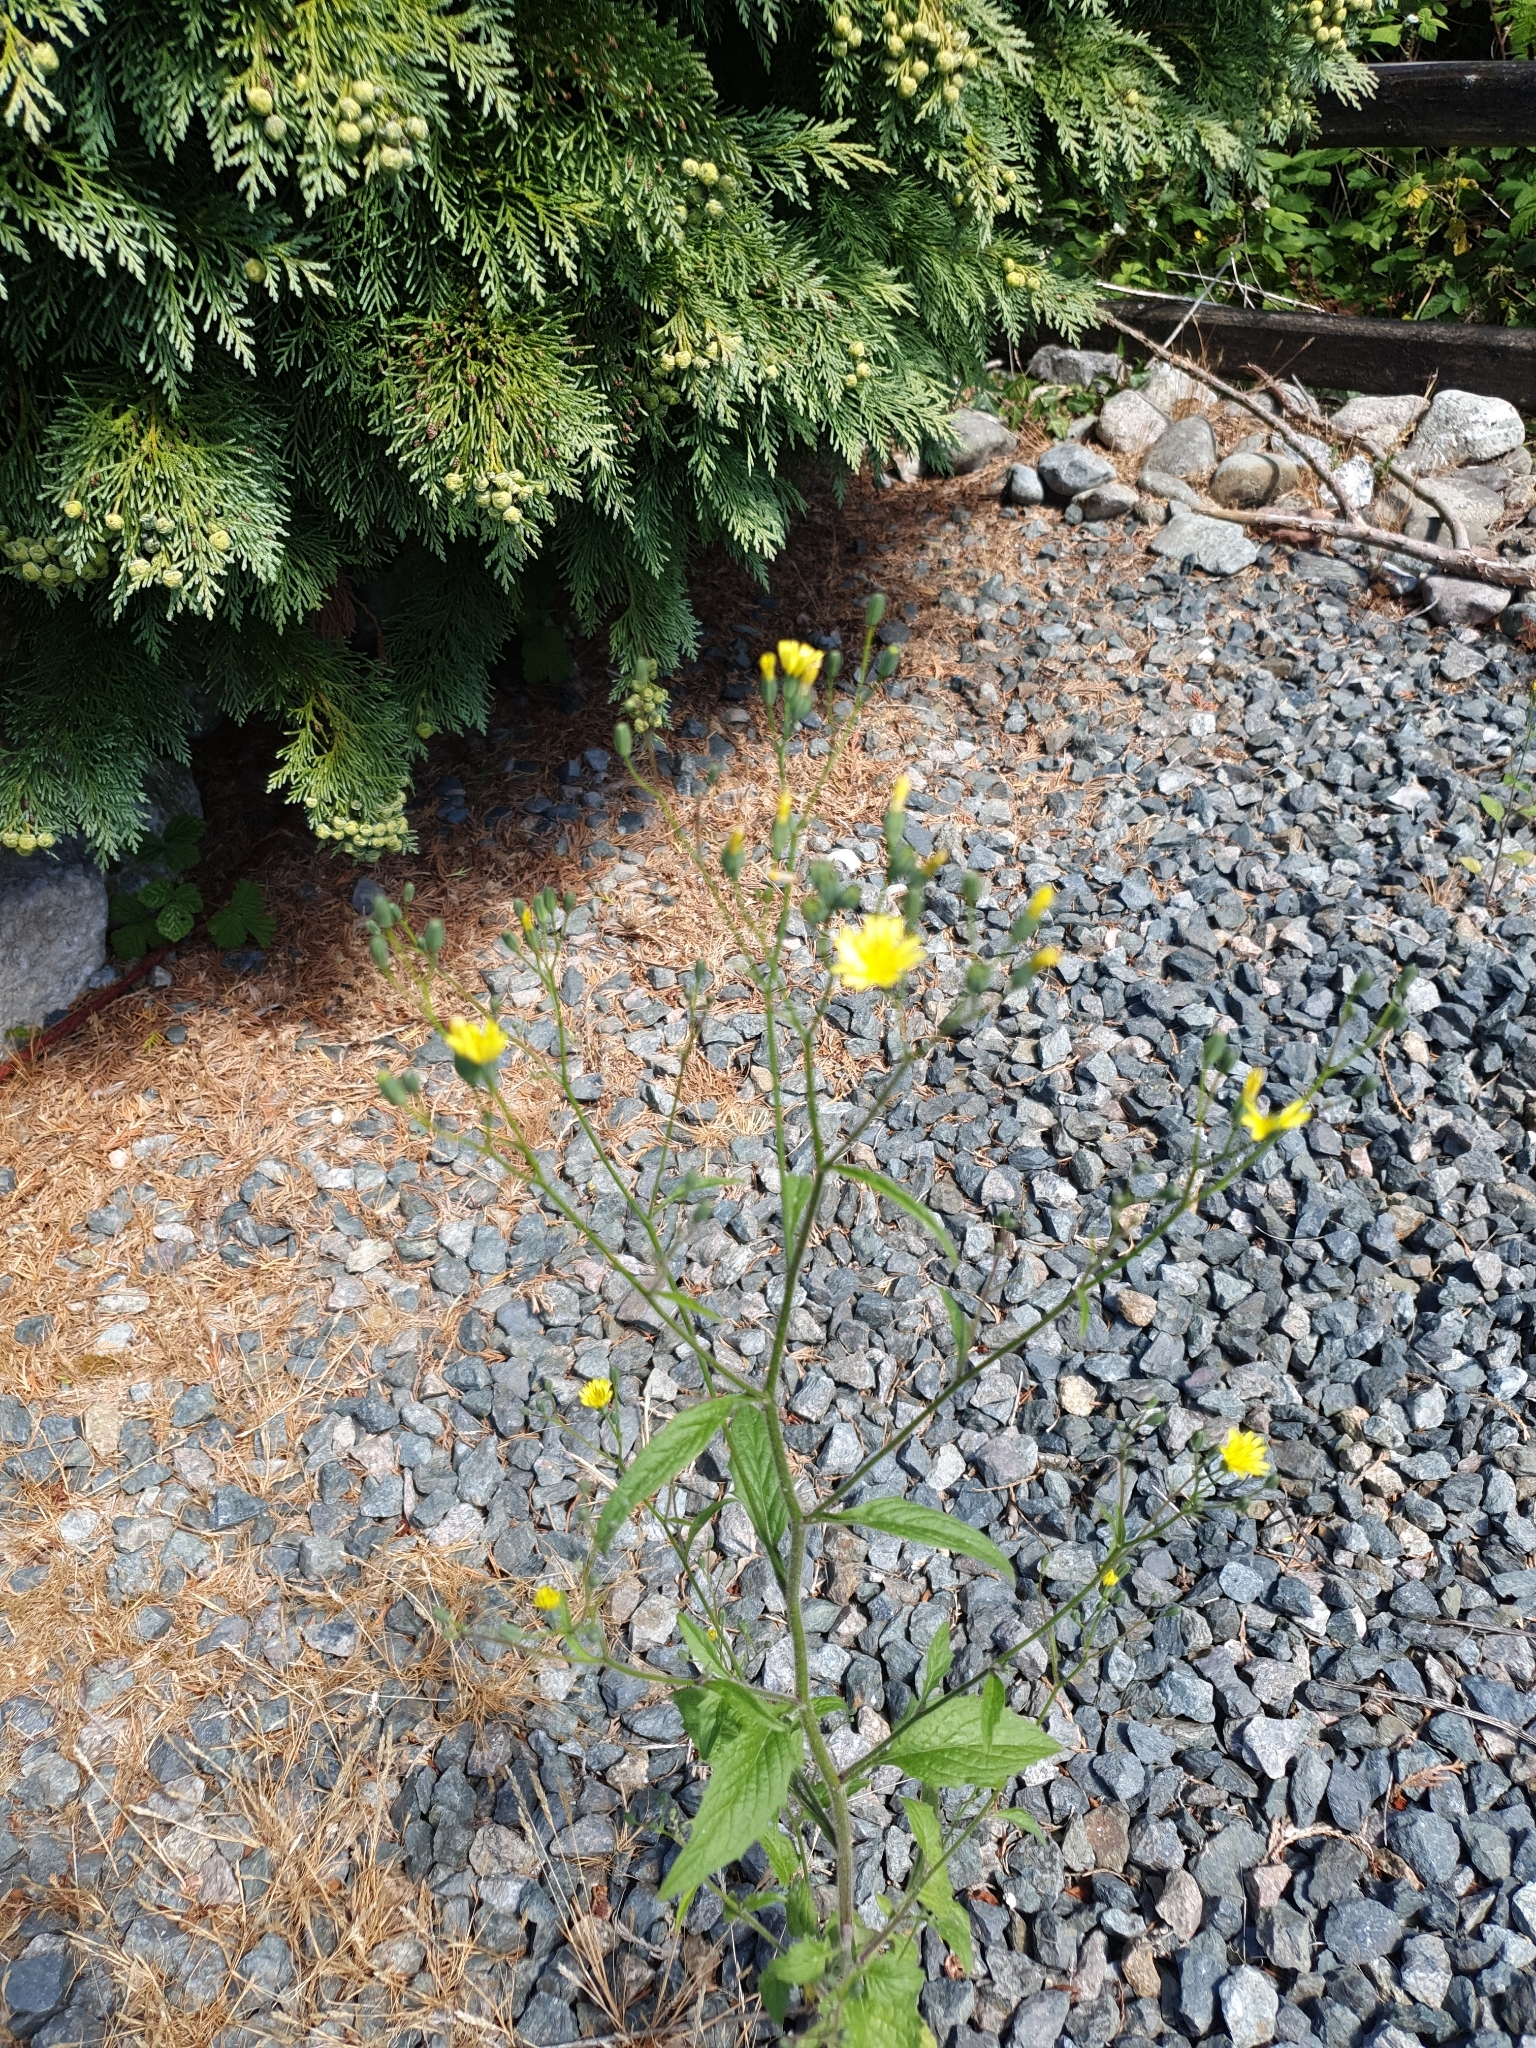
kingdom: Plantae
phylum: Tracheophyta
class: Magnoliopsida
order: Asterales
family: Asteraceae
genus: Lapsana
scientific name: Lapsana communis
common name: Nipplewort
